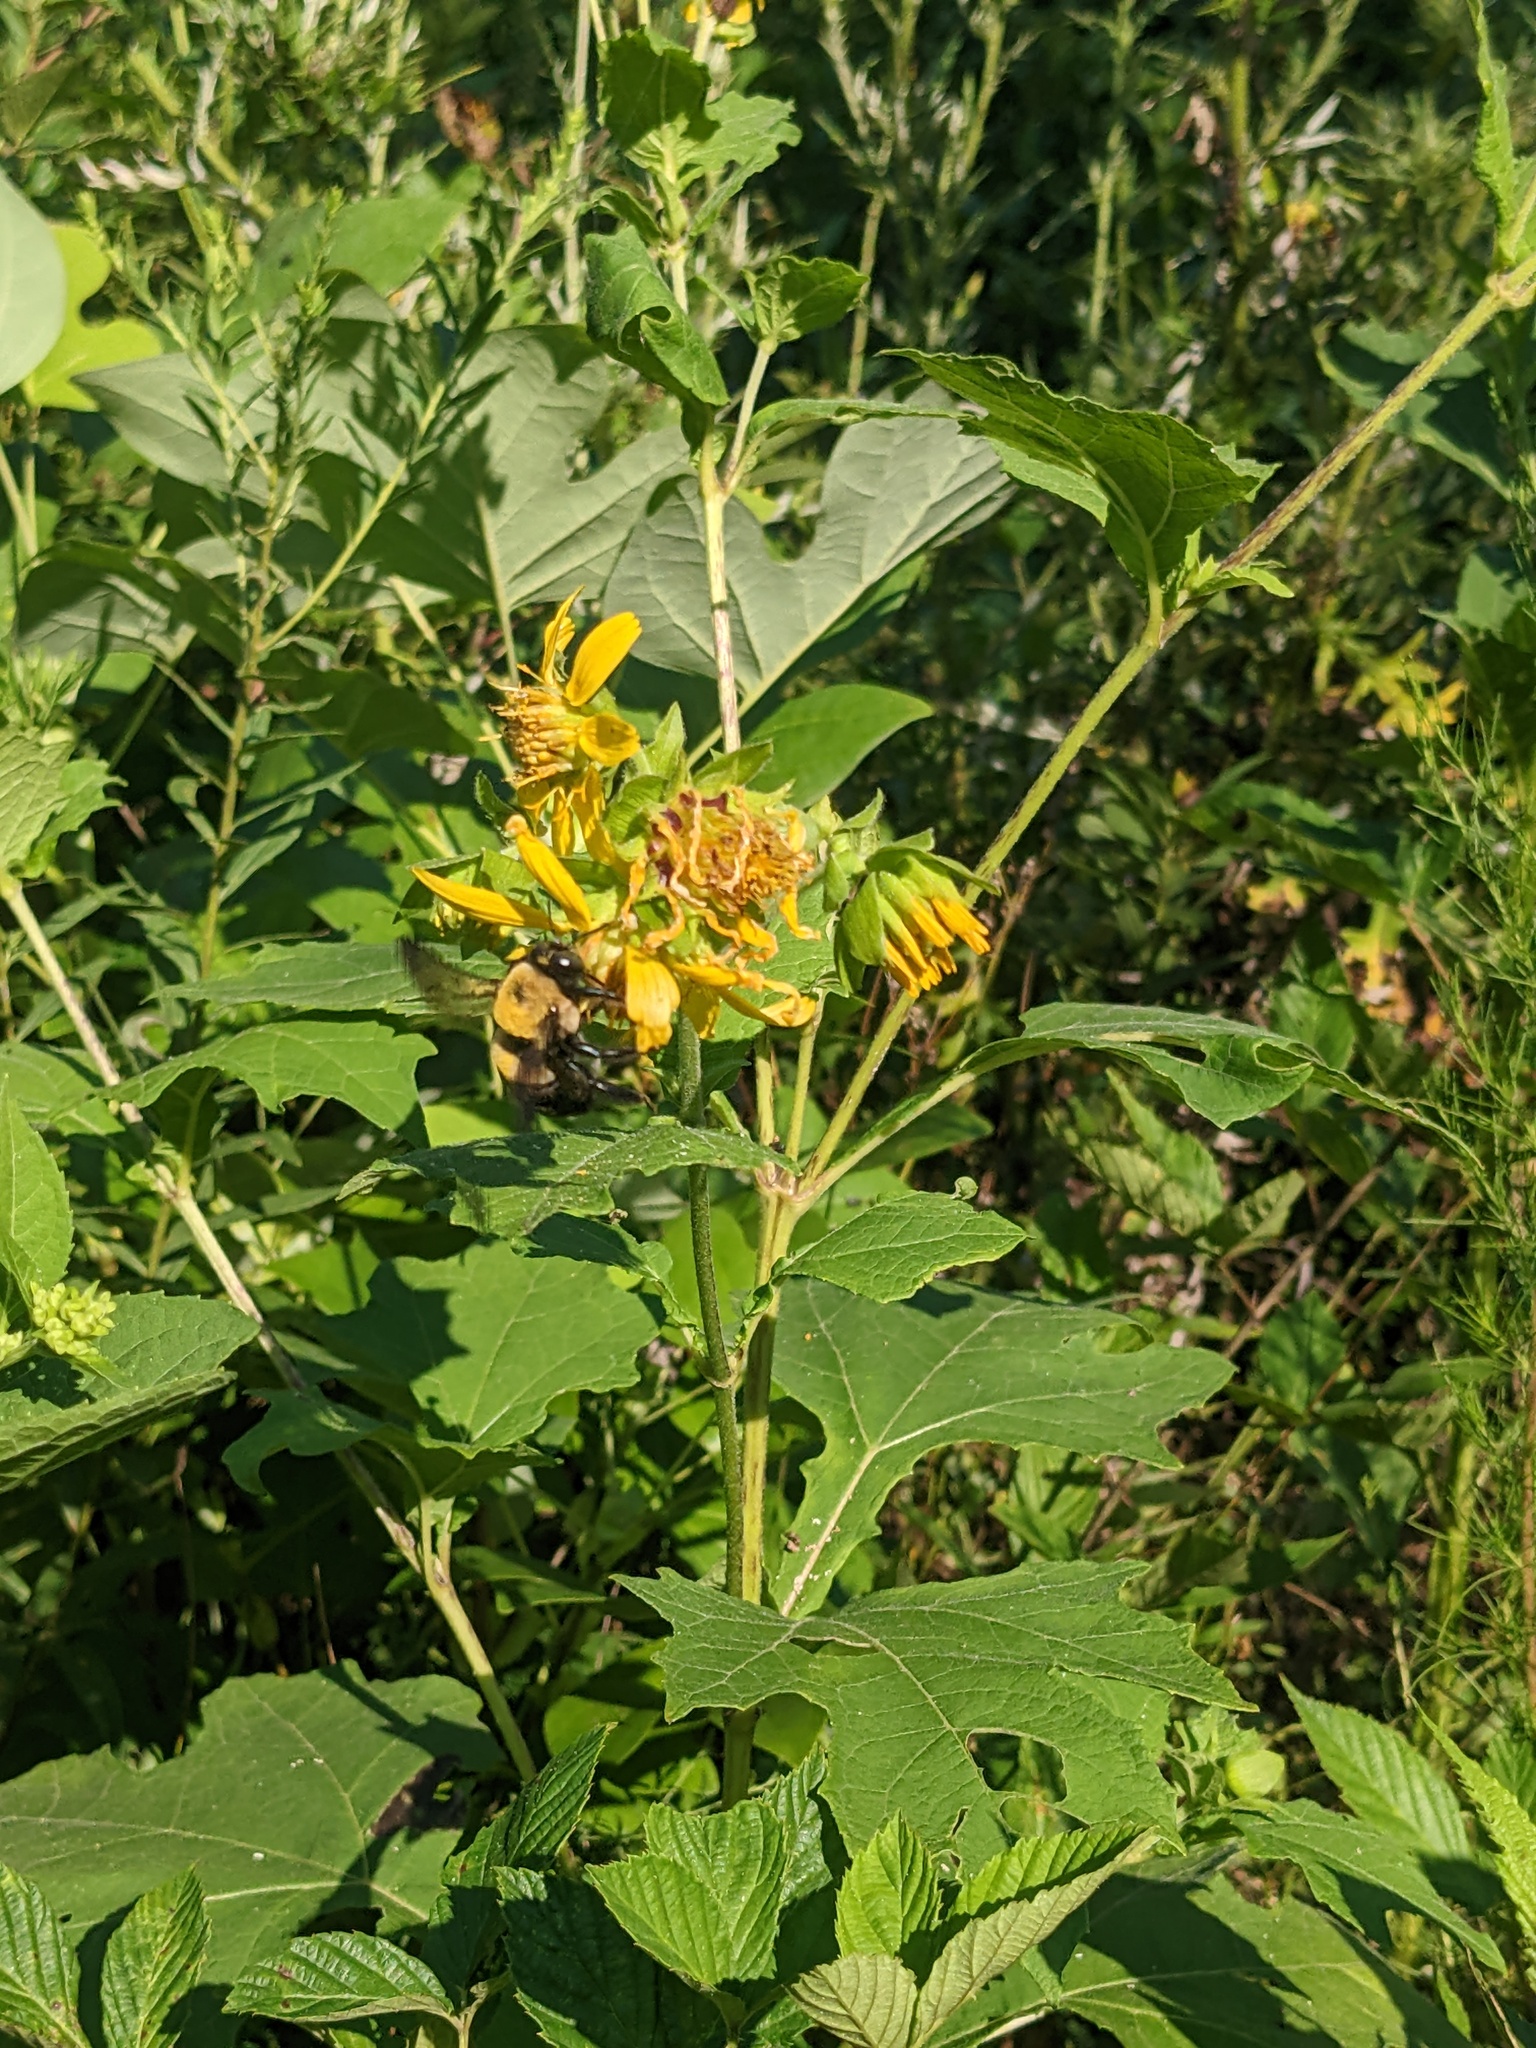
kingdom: Animalia
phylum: Arthropoda
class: Insecta
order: Hymenoptera
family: Apidae
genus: Xylocopa
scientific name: Xylocopa virginica
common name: Carpenter bee
